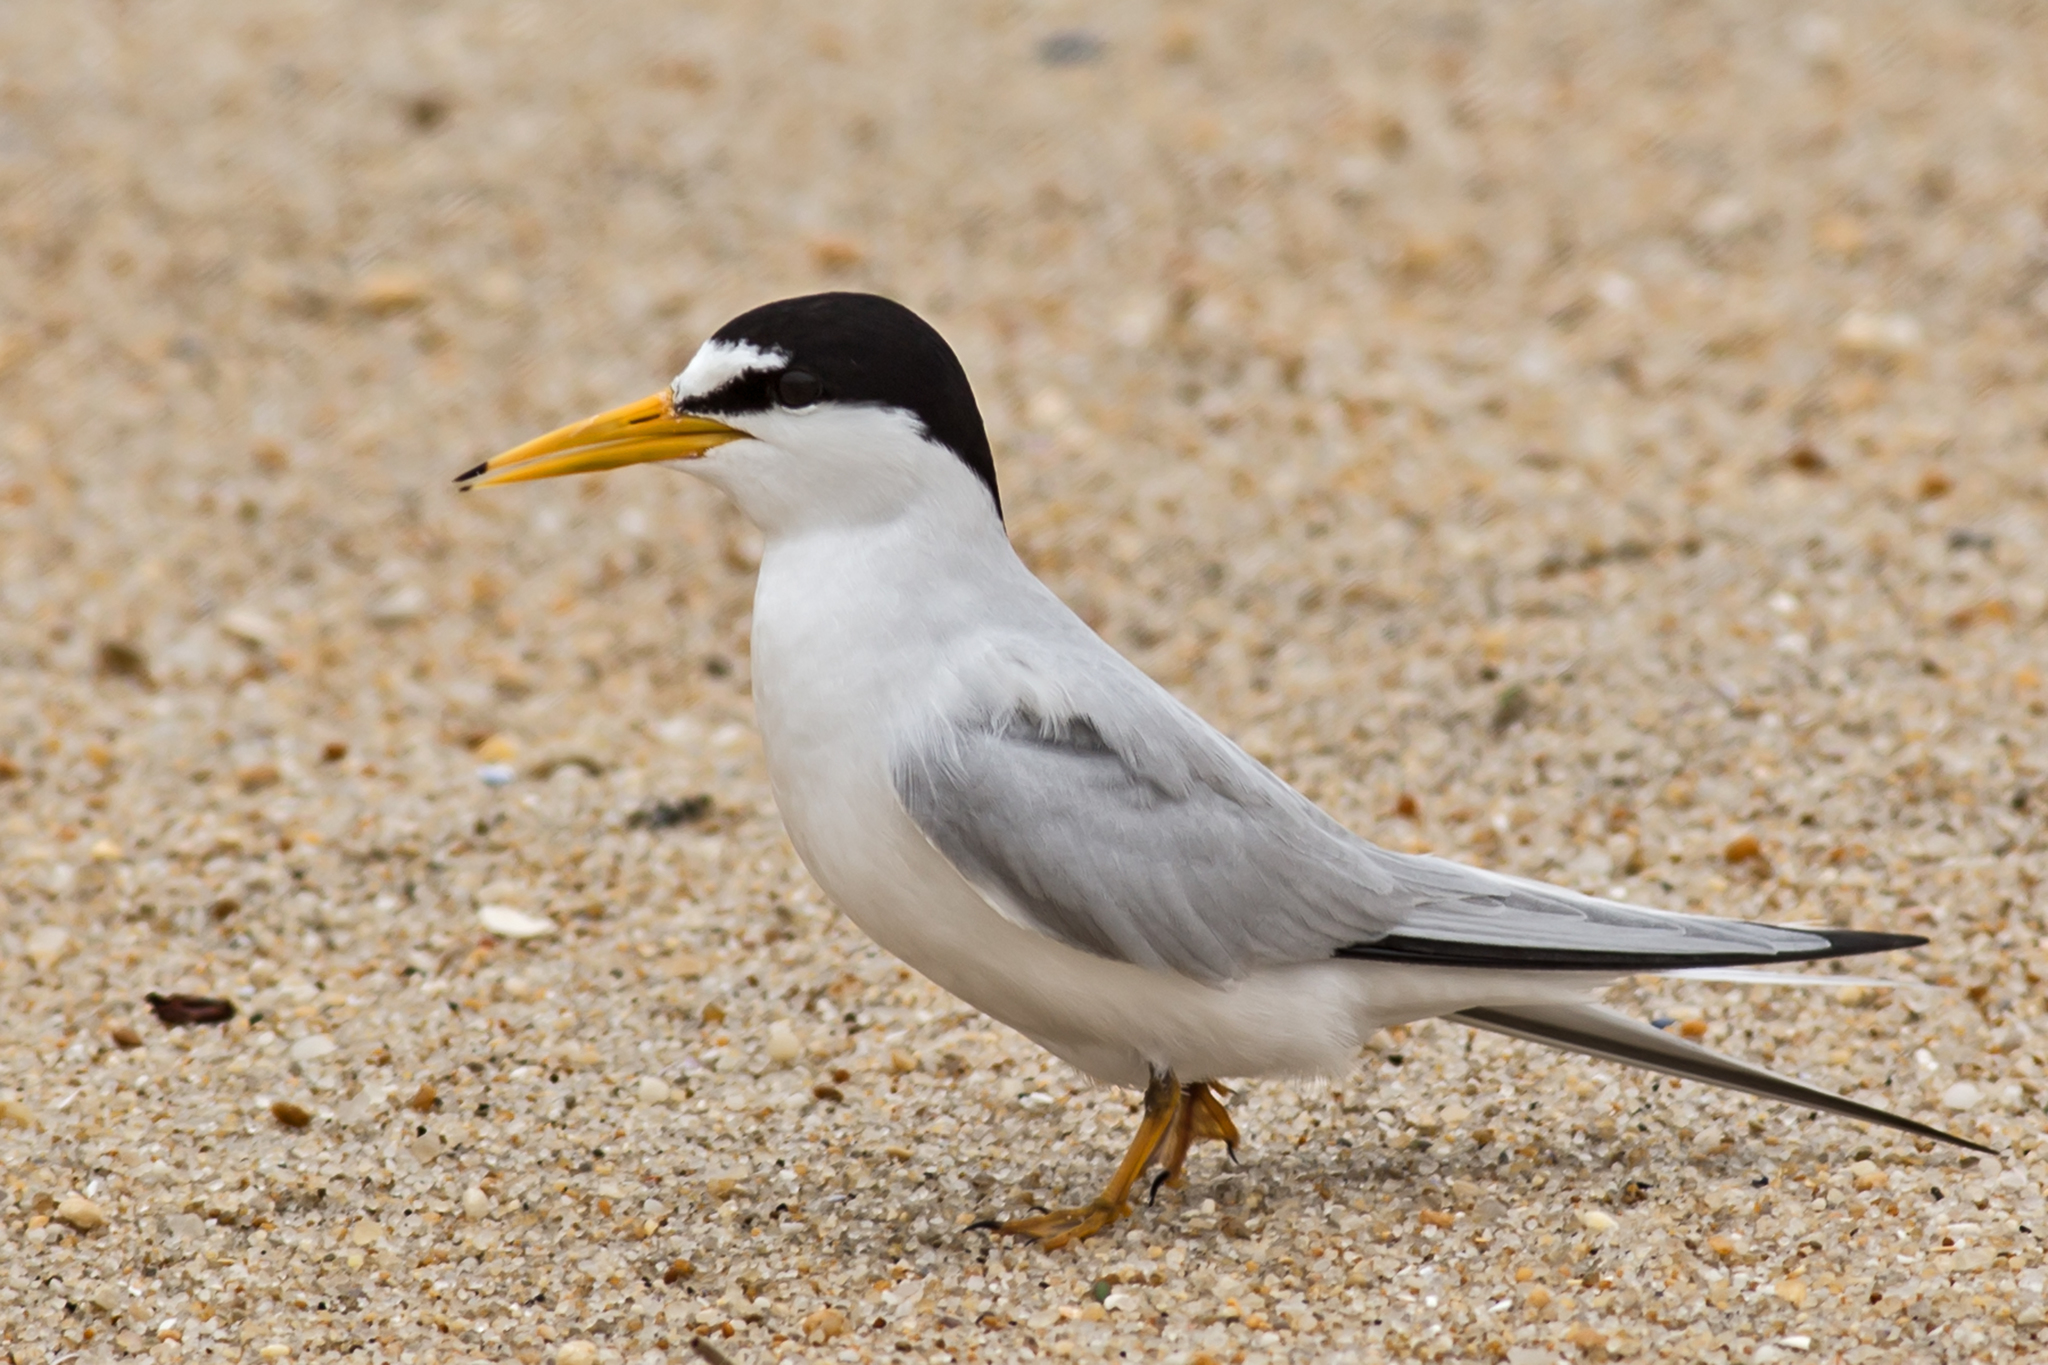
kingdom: Animalia
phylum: Chordata
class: Aves
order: Charadriiformes
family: Laridae
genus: Sternula
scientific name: Sternula antillarum
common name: Least tern
